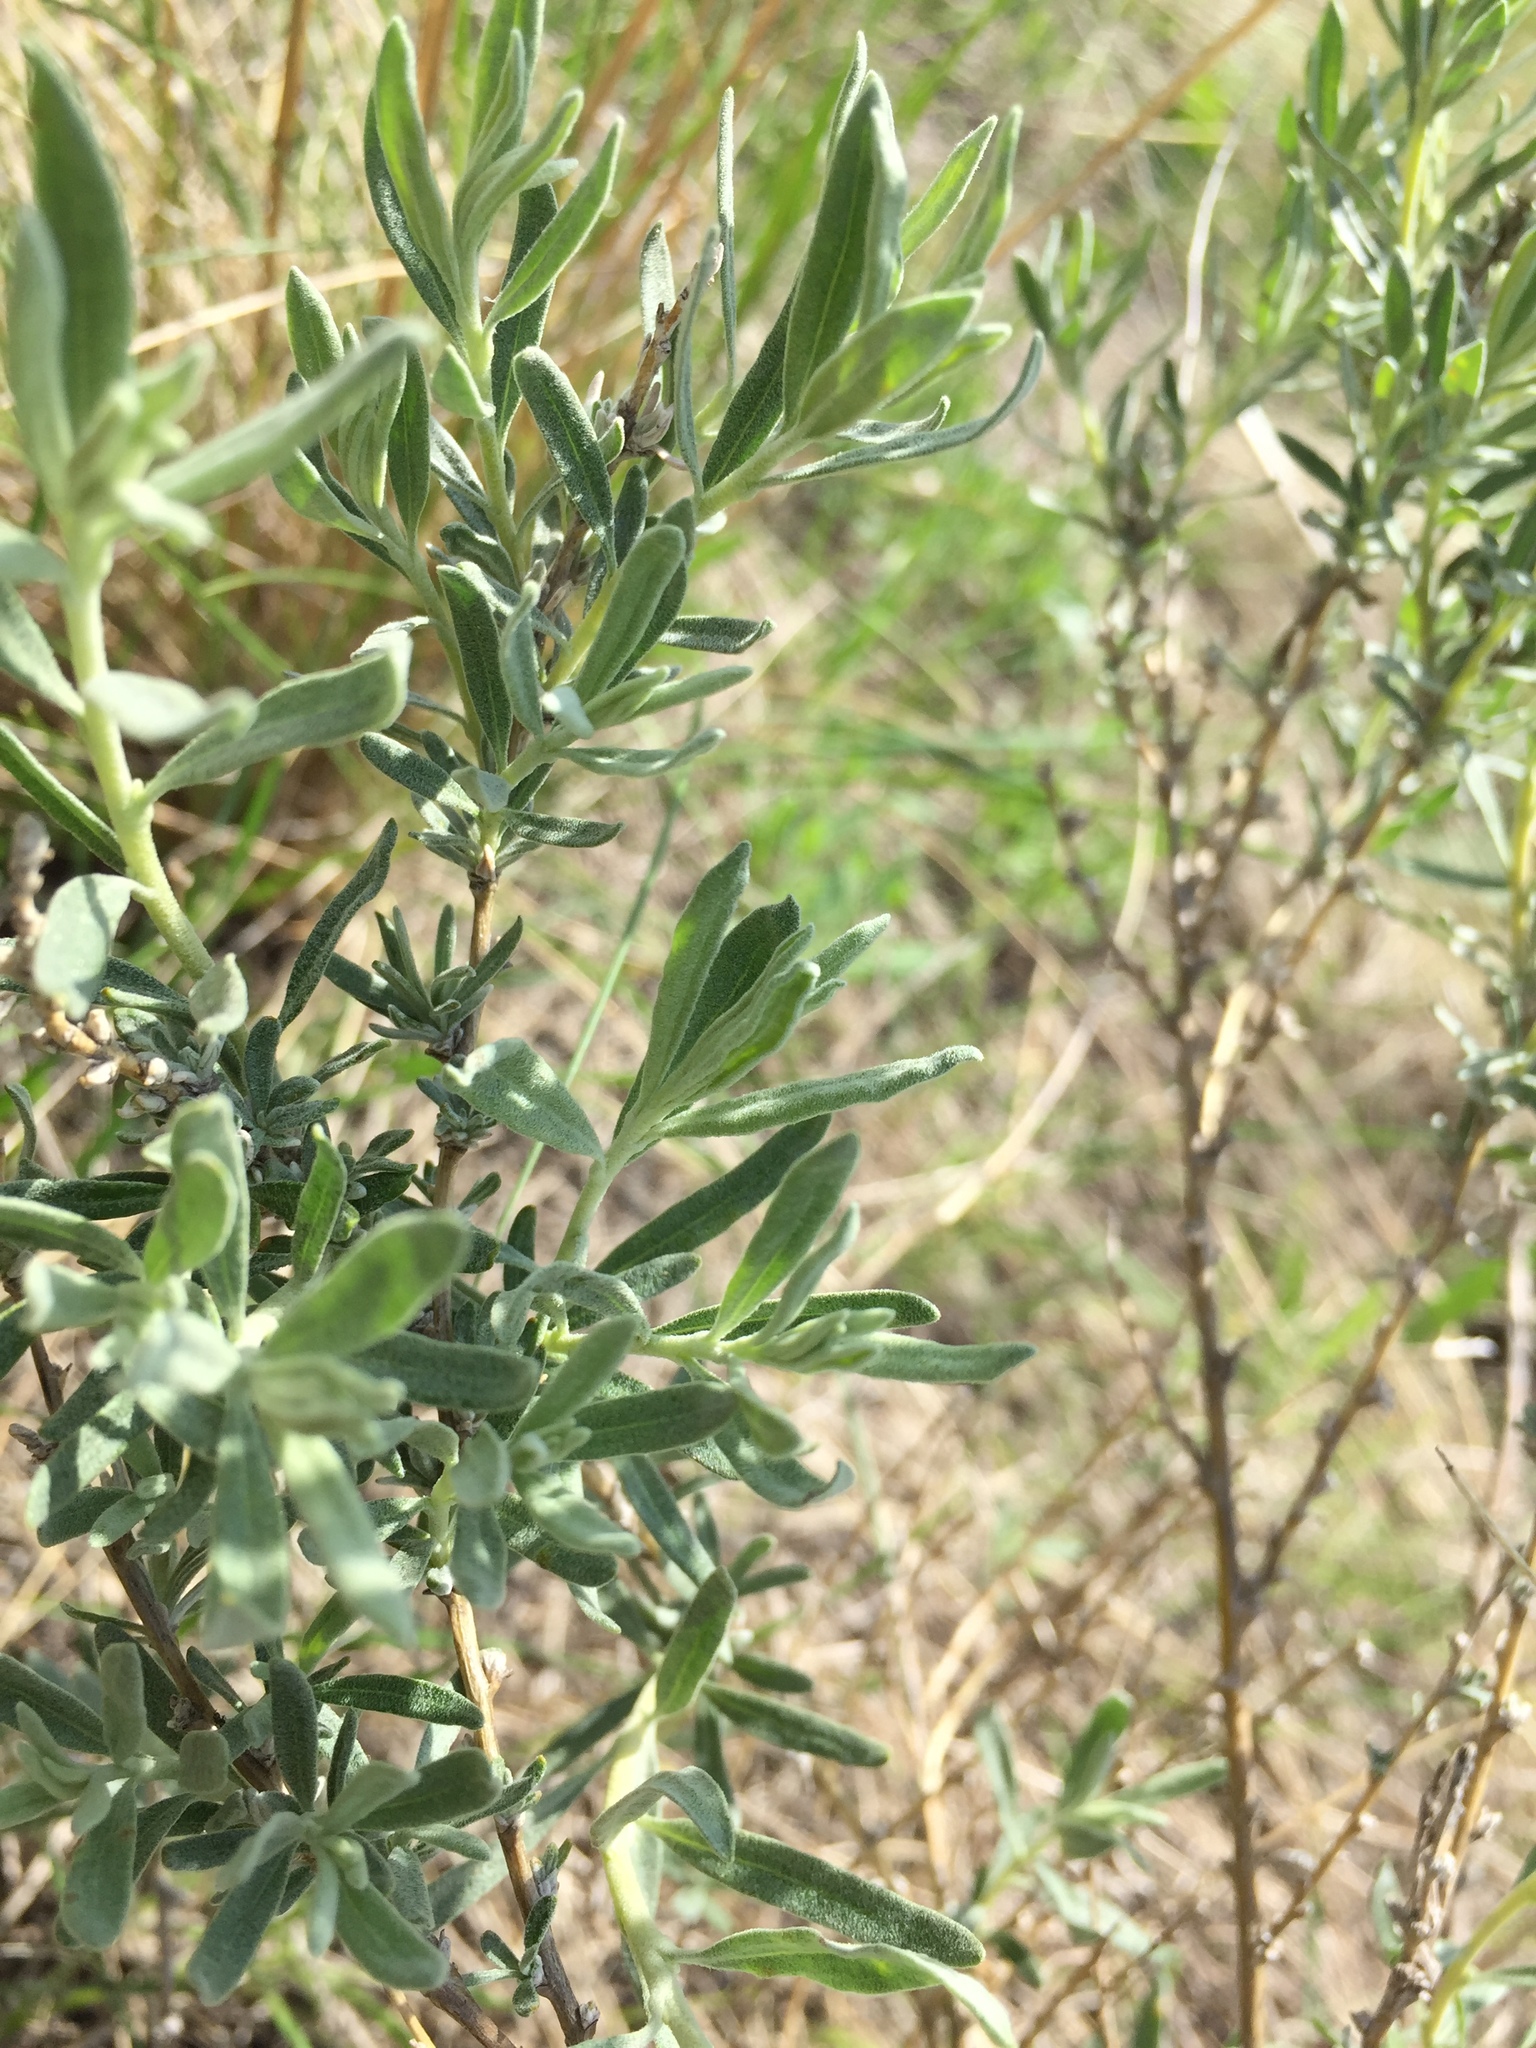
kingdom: Plantae
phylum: Tracheophyta
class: Magnoliopsida
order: Caryophyllales
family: Amaranthaceae
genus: Krascheninnikovia
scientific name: Krascheninnikovia ceratoides
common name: Pamirian winterfat
